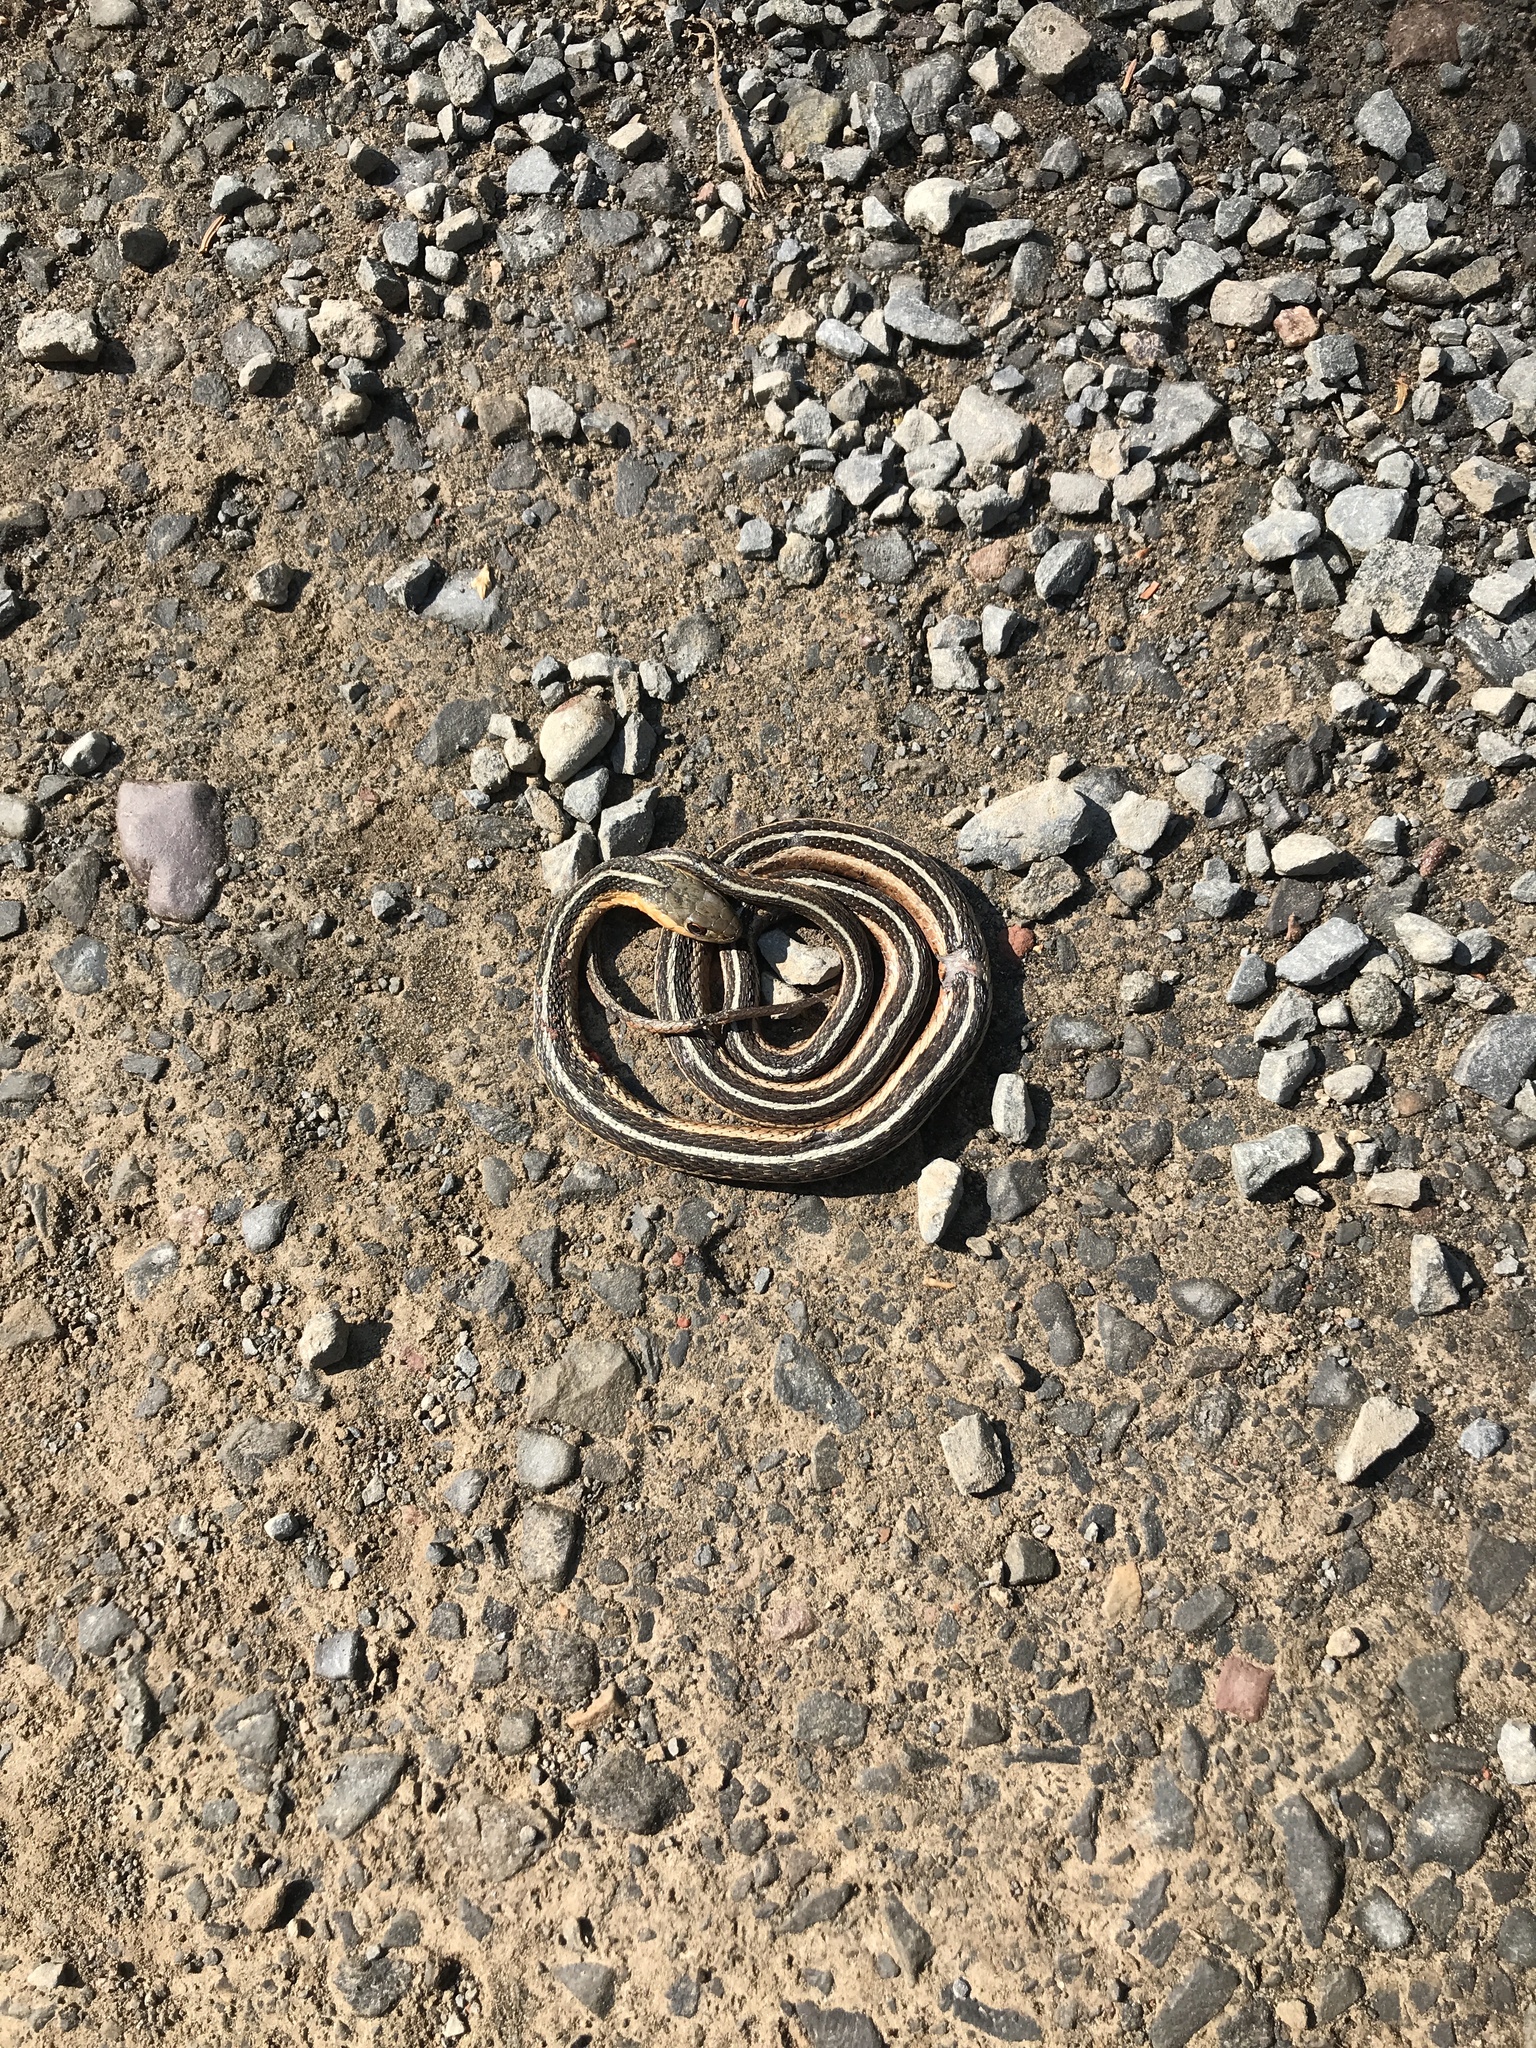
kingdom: Animalia
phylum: Chordata
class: Squamata
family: Colubridae
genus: Thamnophis
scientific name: Thamnophis sirtalis
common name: Common garter snake
